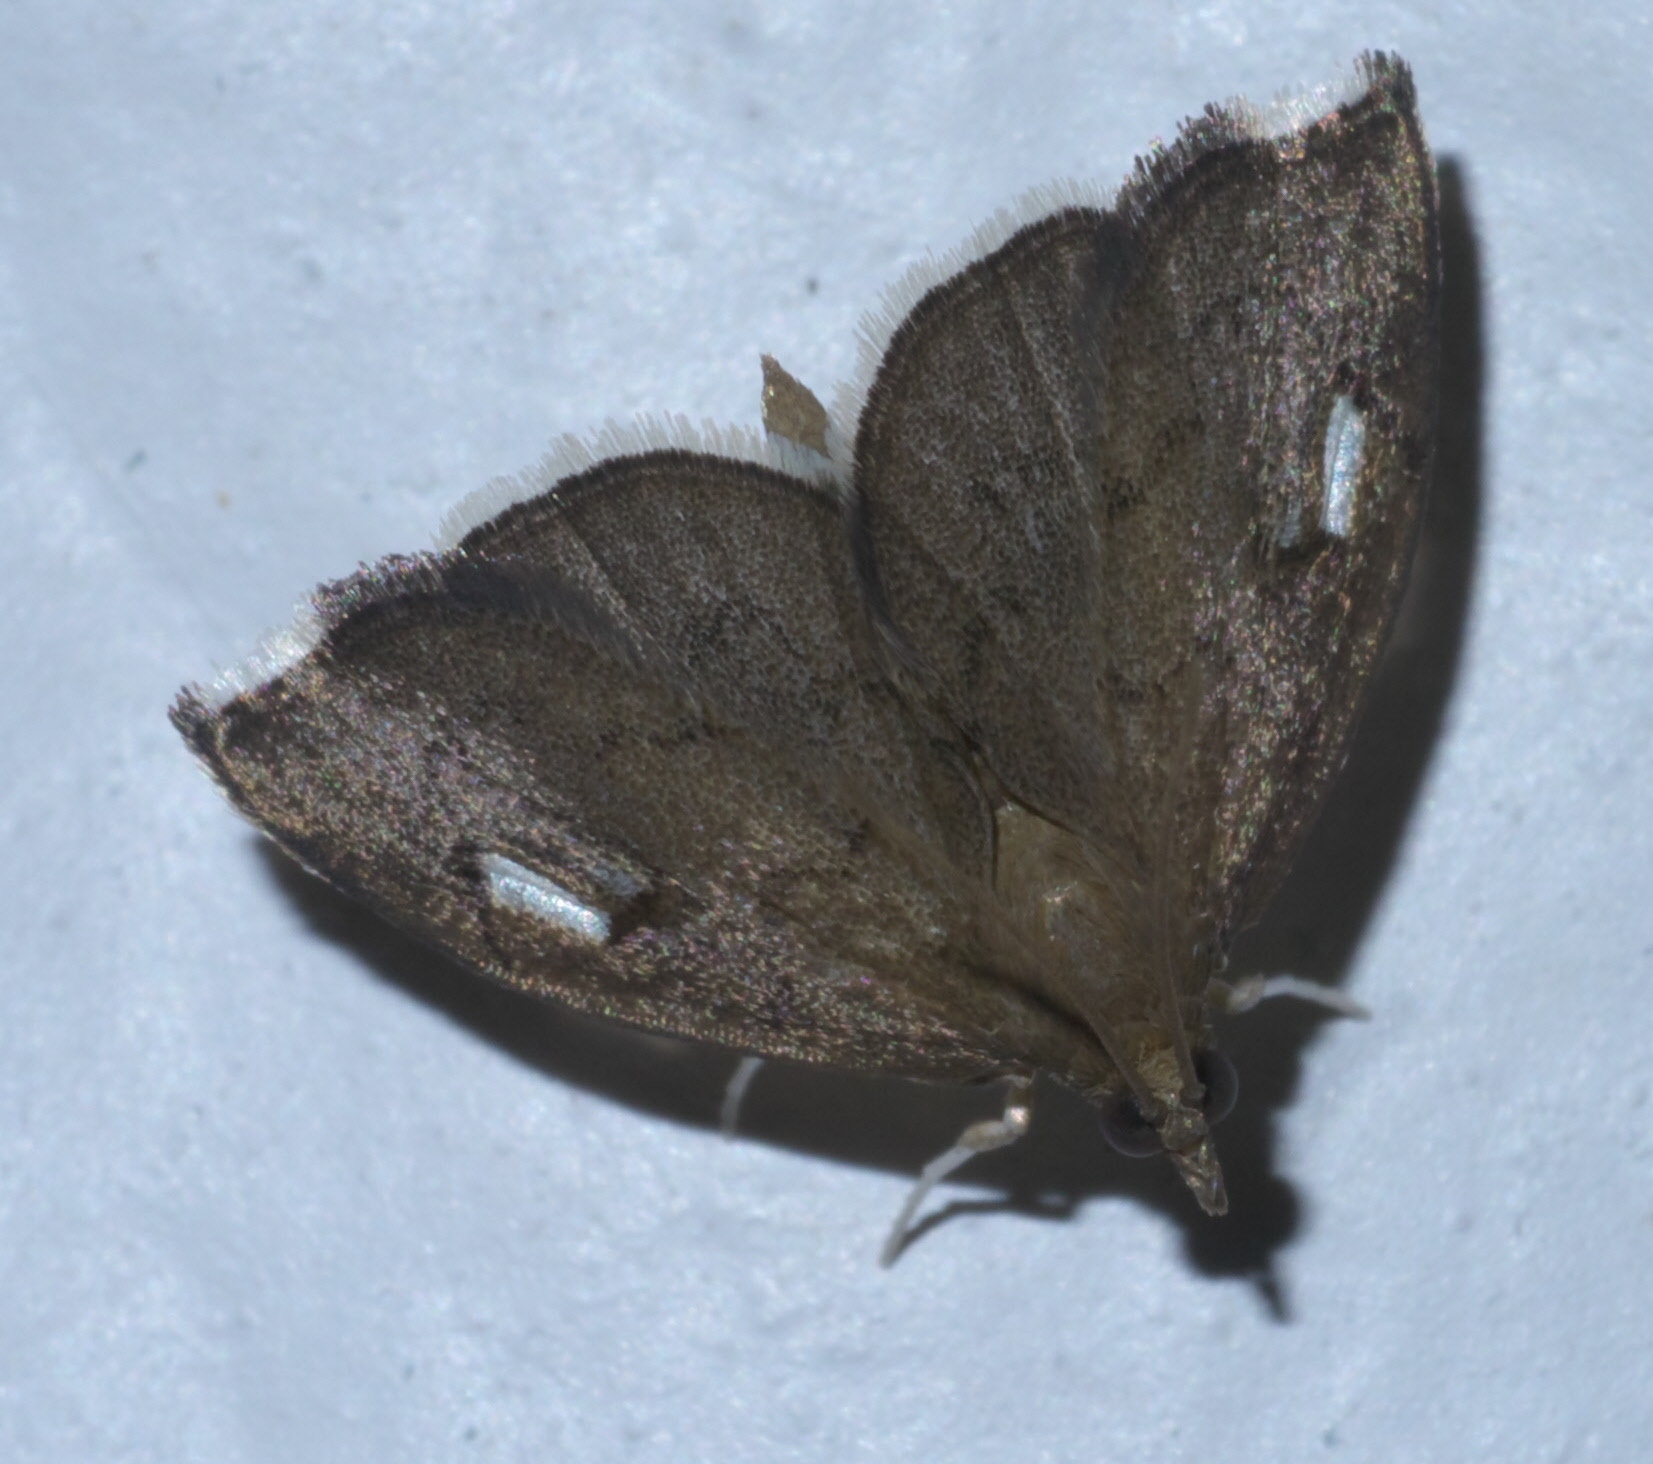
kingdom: Animalia
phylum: Arthropoda
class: Insecta
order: Lepidoptera
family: Crambidae
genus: Perispasta
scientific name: Perispasta caeculalis
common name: Titian peale's moth
